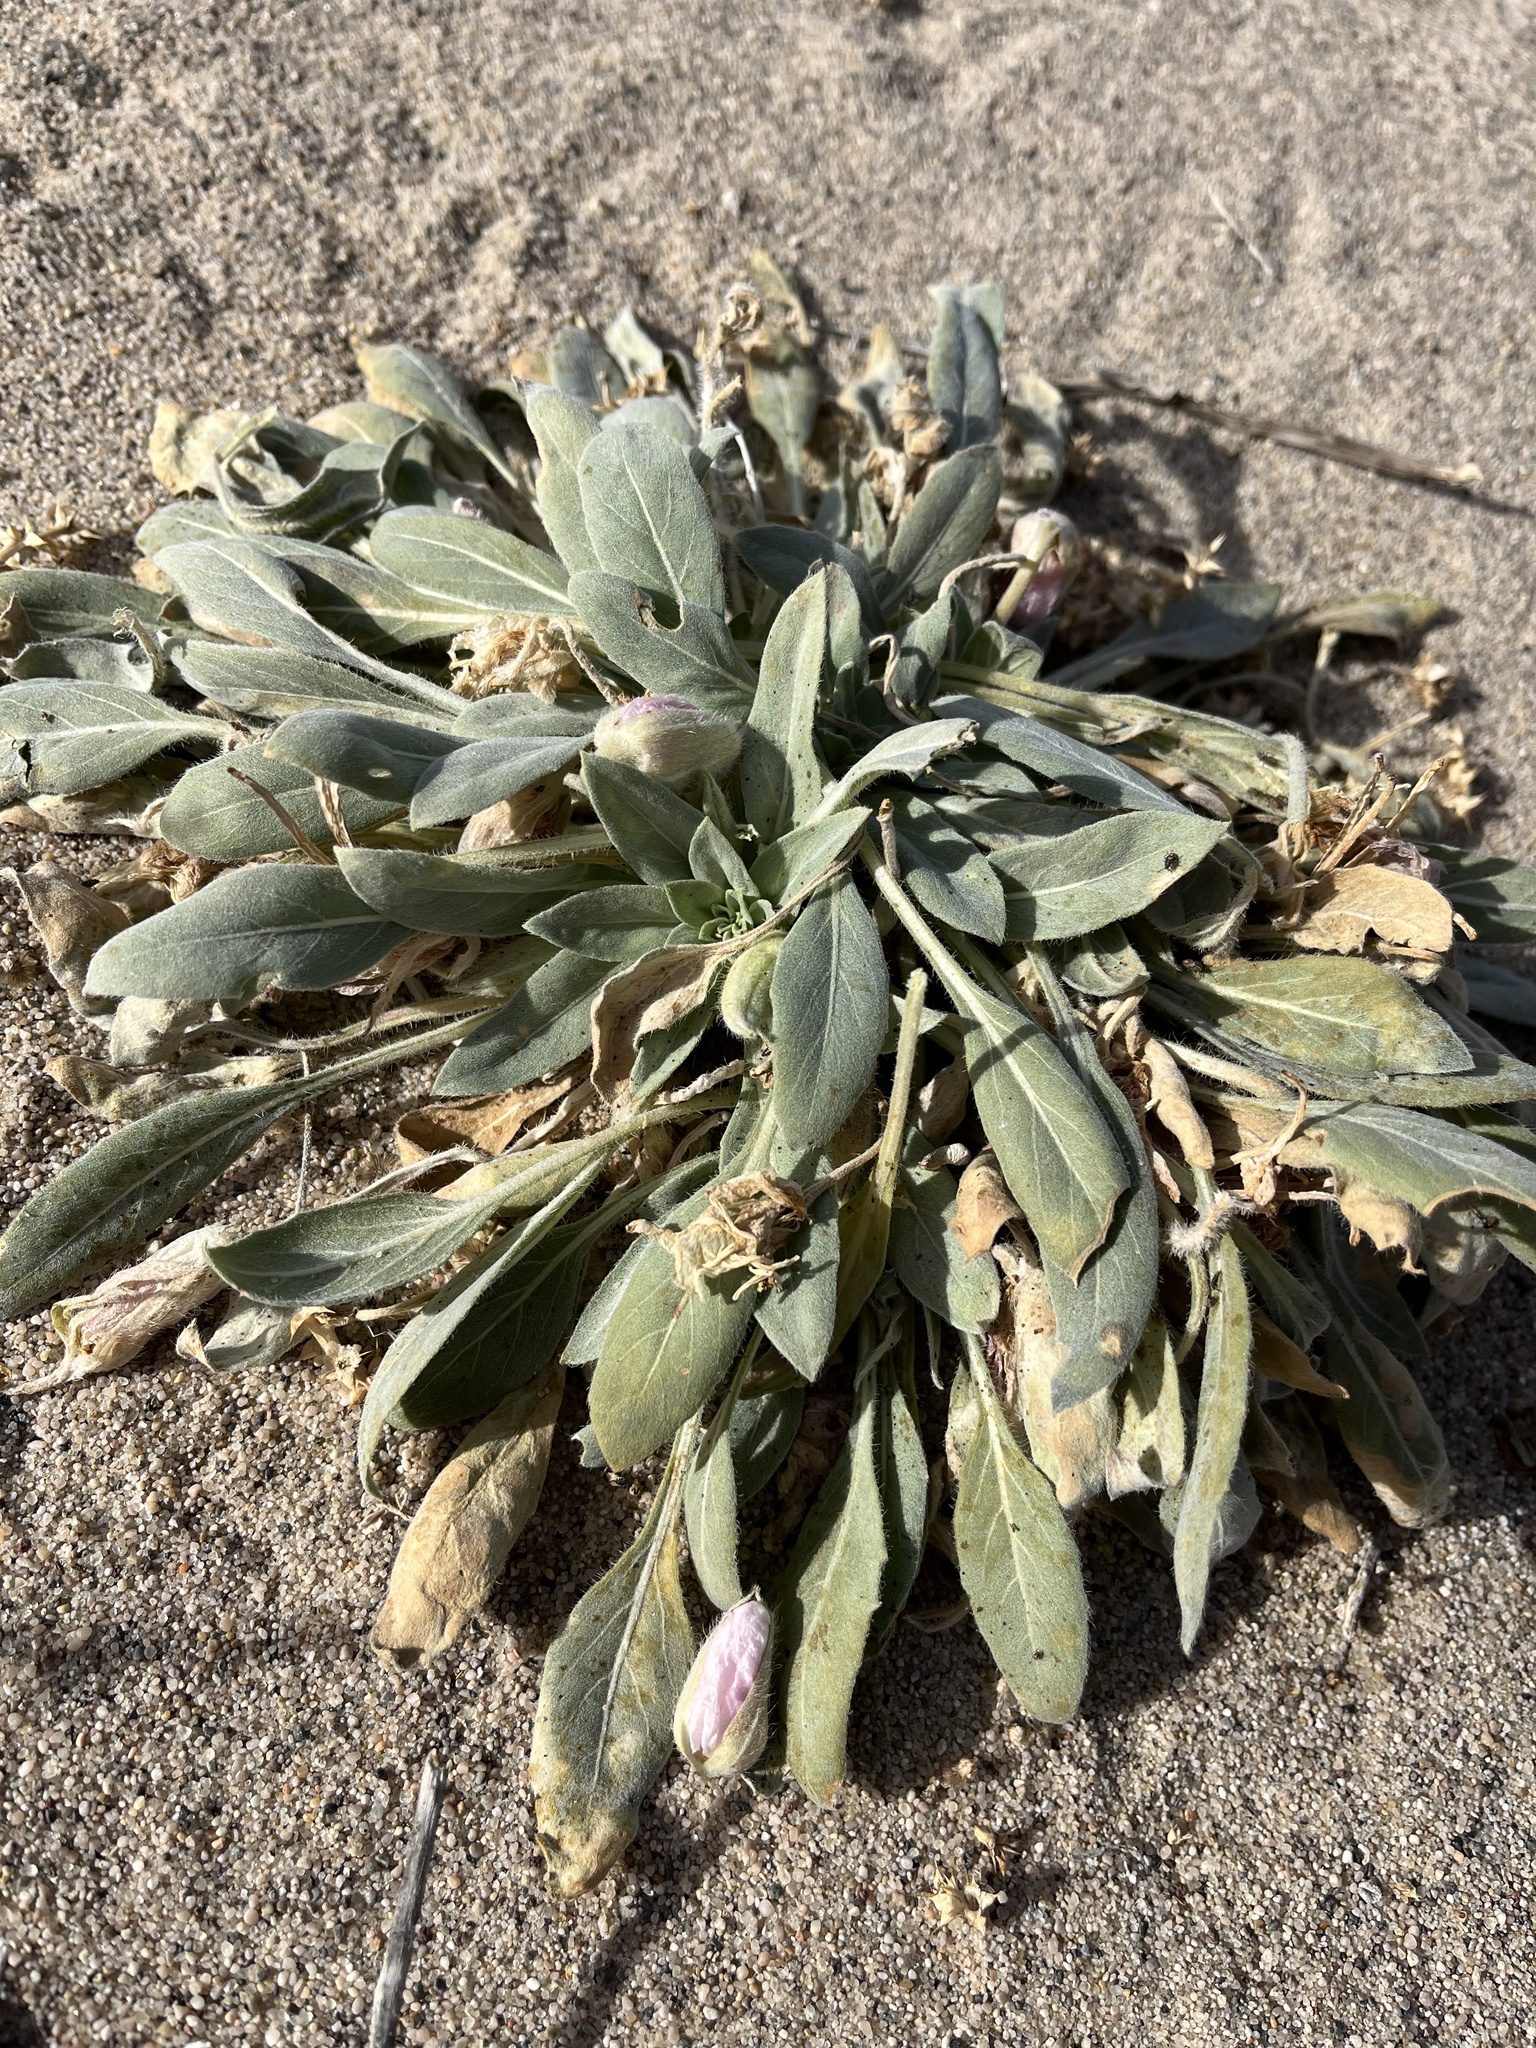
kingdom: Plantae
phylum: Tracheophyta
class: Magnoliopsida
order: Myrtales
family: Onagraceae
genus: Oenothera
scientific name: Oenothera avita
